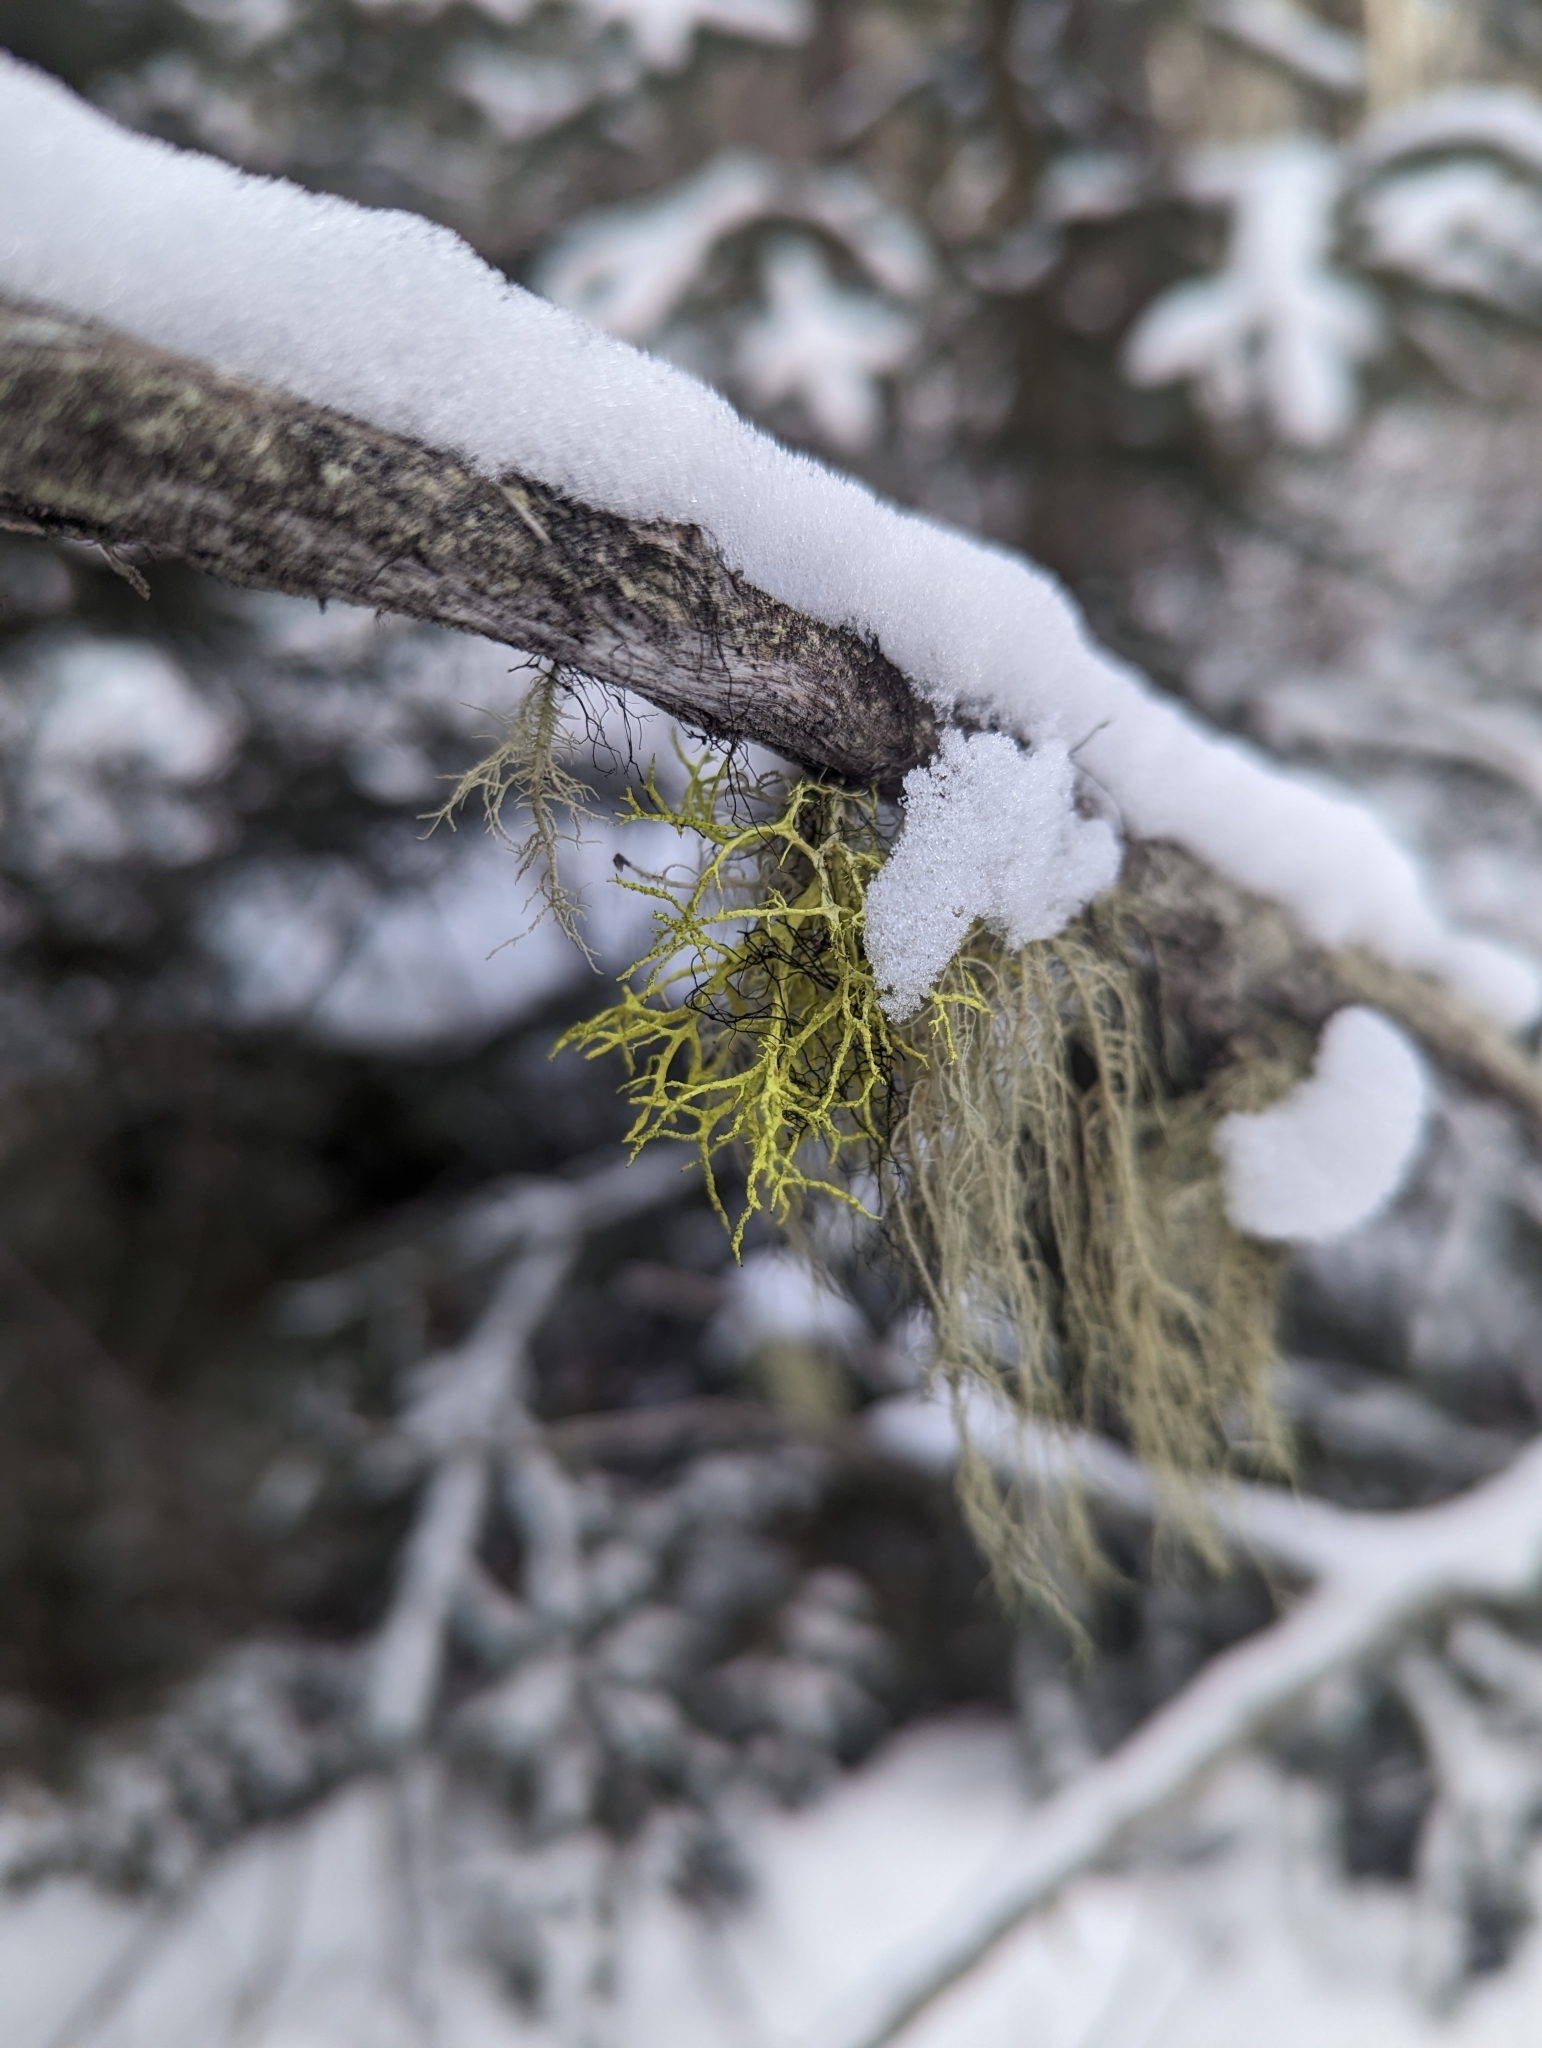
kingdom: Fungi
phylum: Ascomycota
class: Lecanoromycetes
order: Lecanorales
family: Parmeliaceae
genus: Letharia
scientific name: Letharia vulpina
